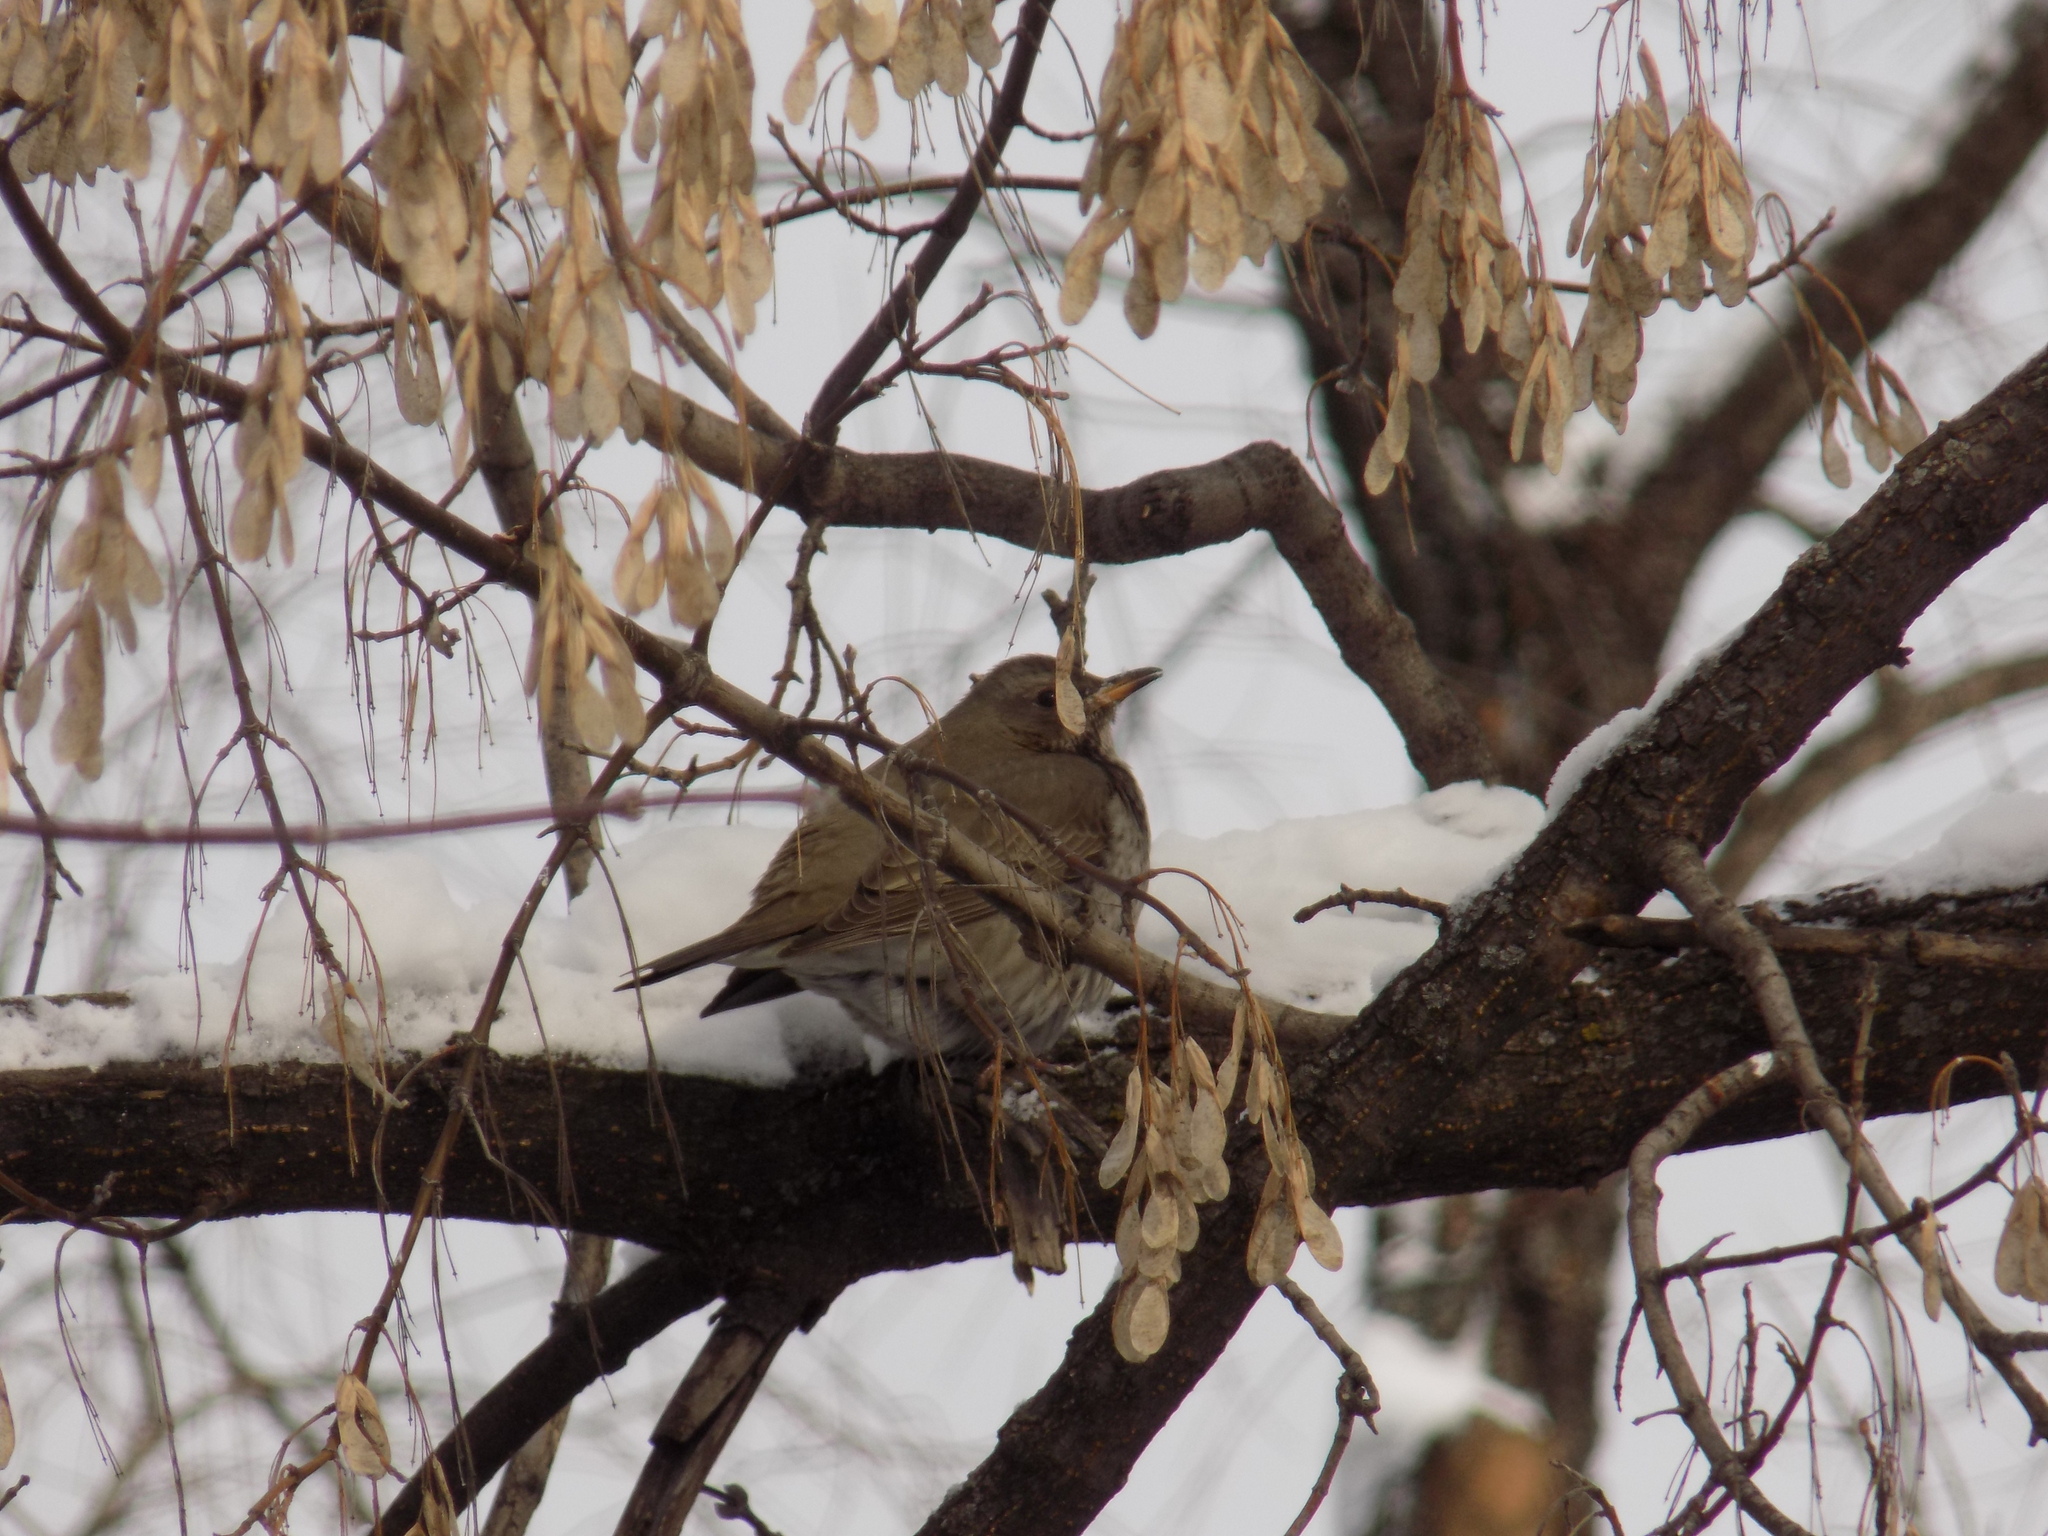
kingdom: Animalia
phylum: Chordata
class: Aves
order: Passeriformes
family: Turdidae
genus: Turdus
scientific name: Turdus atrogularis
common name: Black-throated thrush
